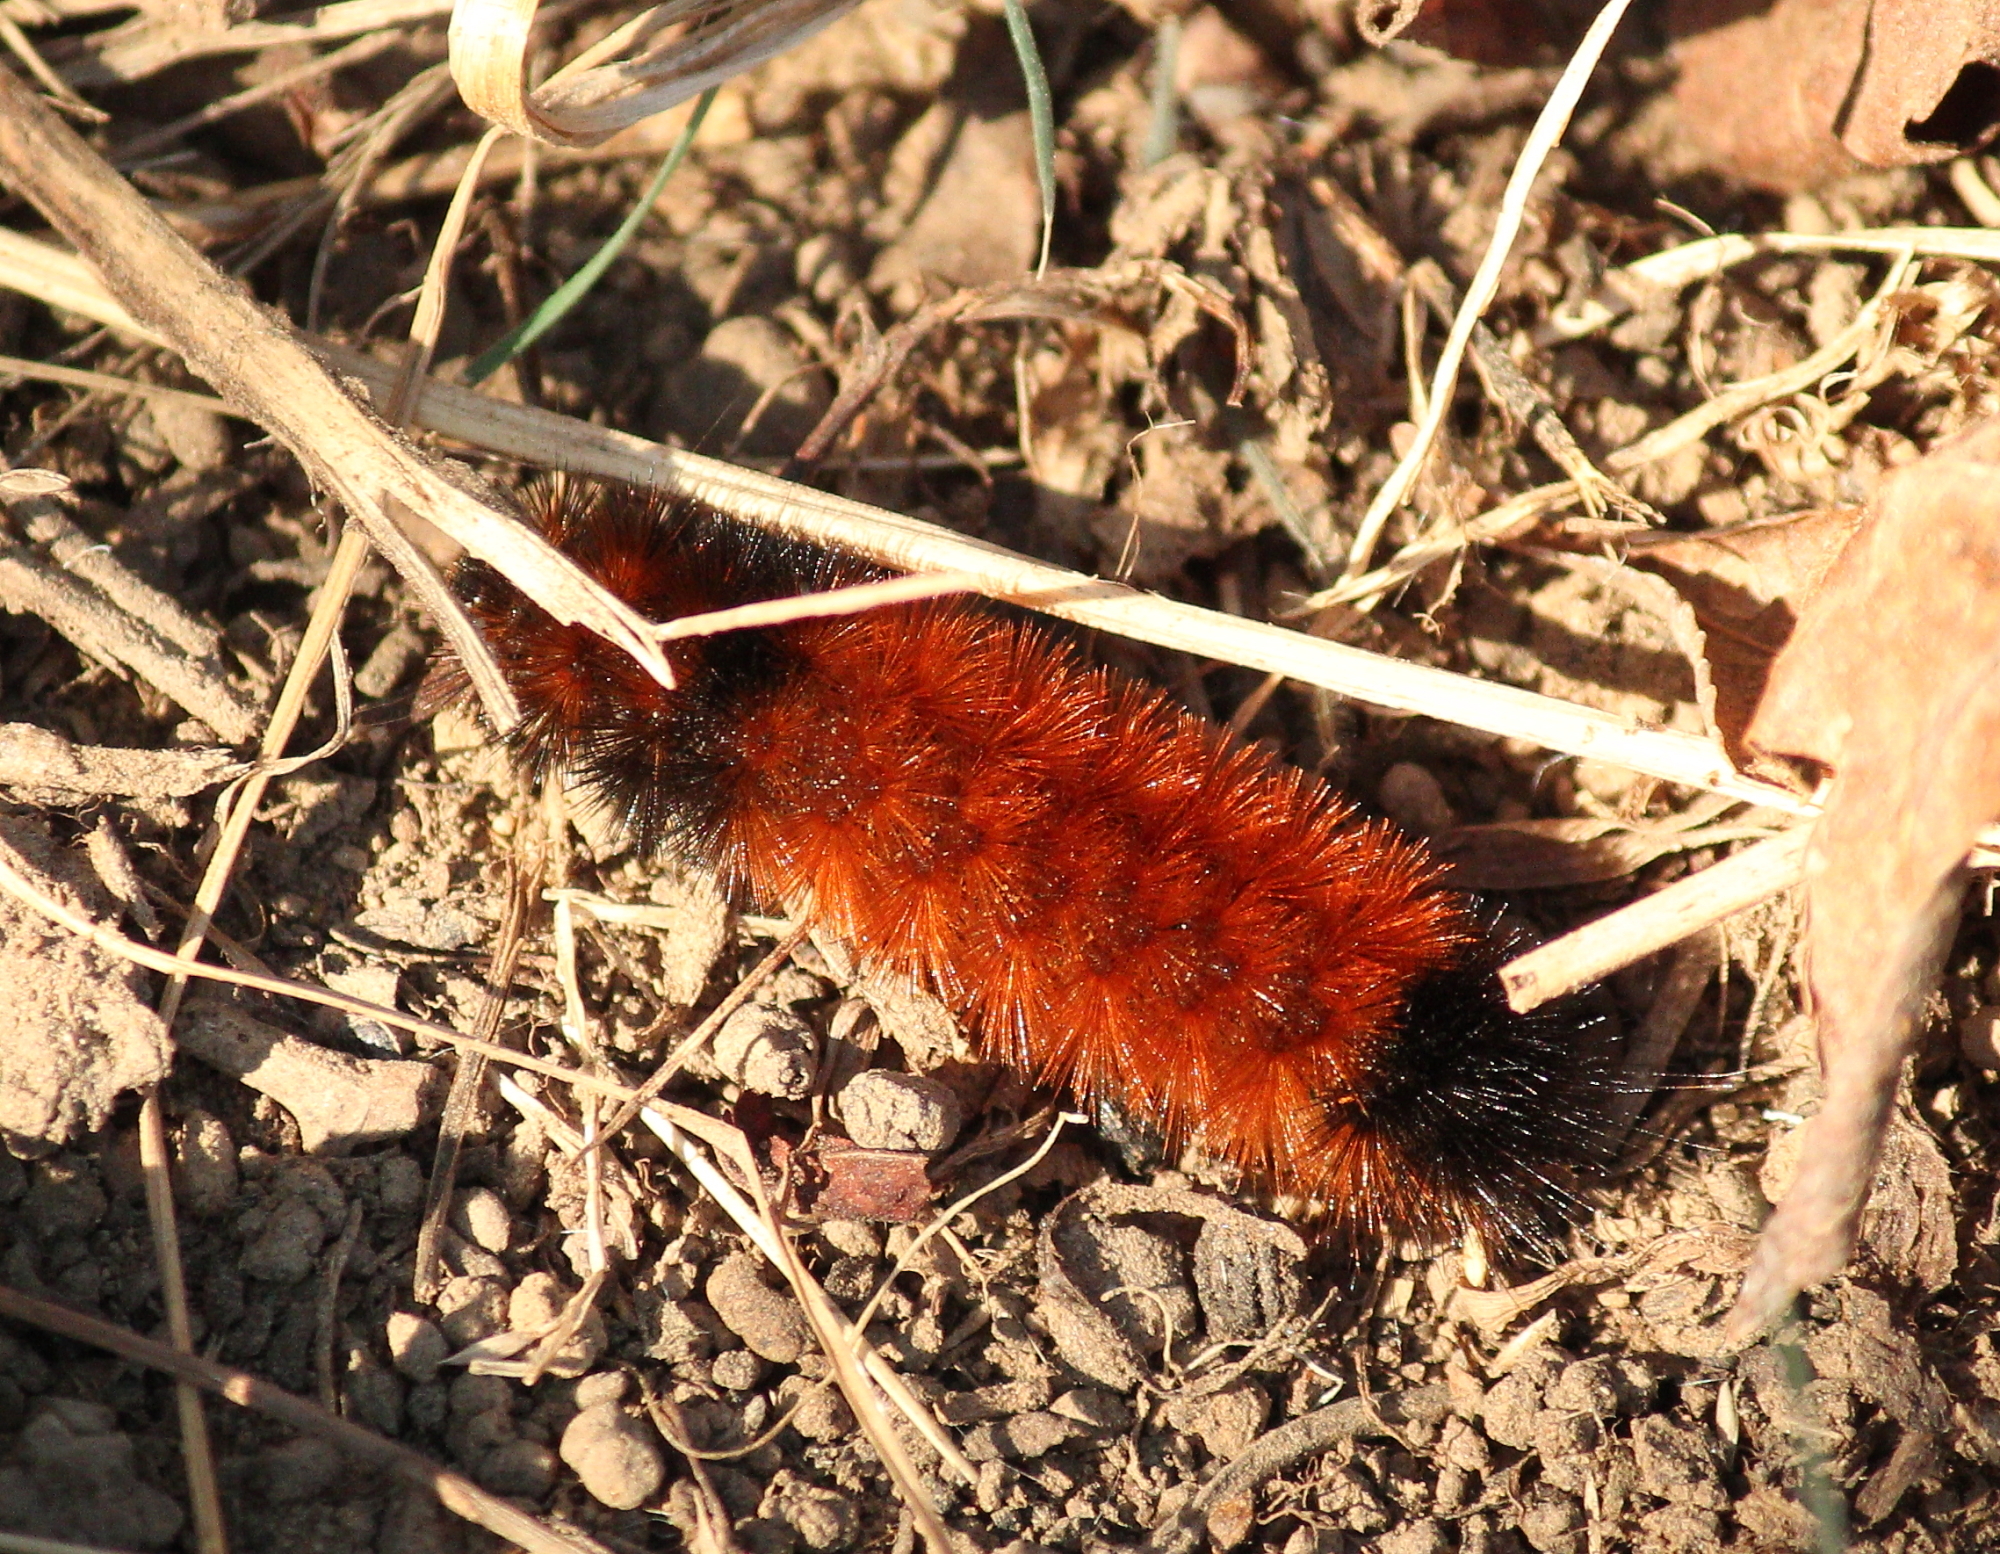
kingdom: Animalia
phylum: Arthropoda
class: Insecta
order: Lepidoptera
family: Erebidae
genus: Pyrrharctia
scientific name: Pyrrharctia isabella
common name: Isabella tiger moth
